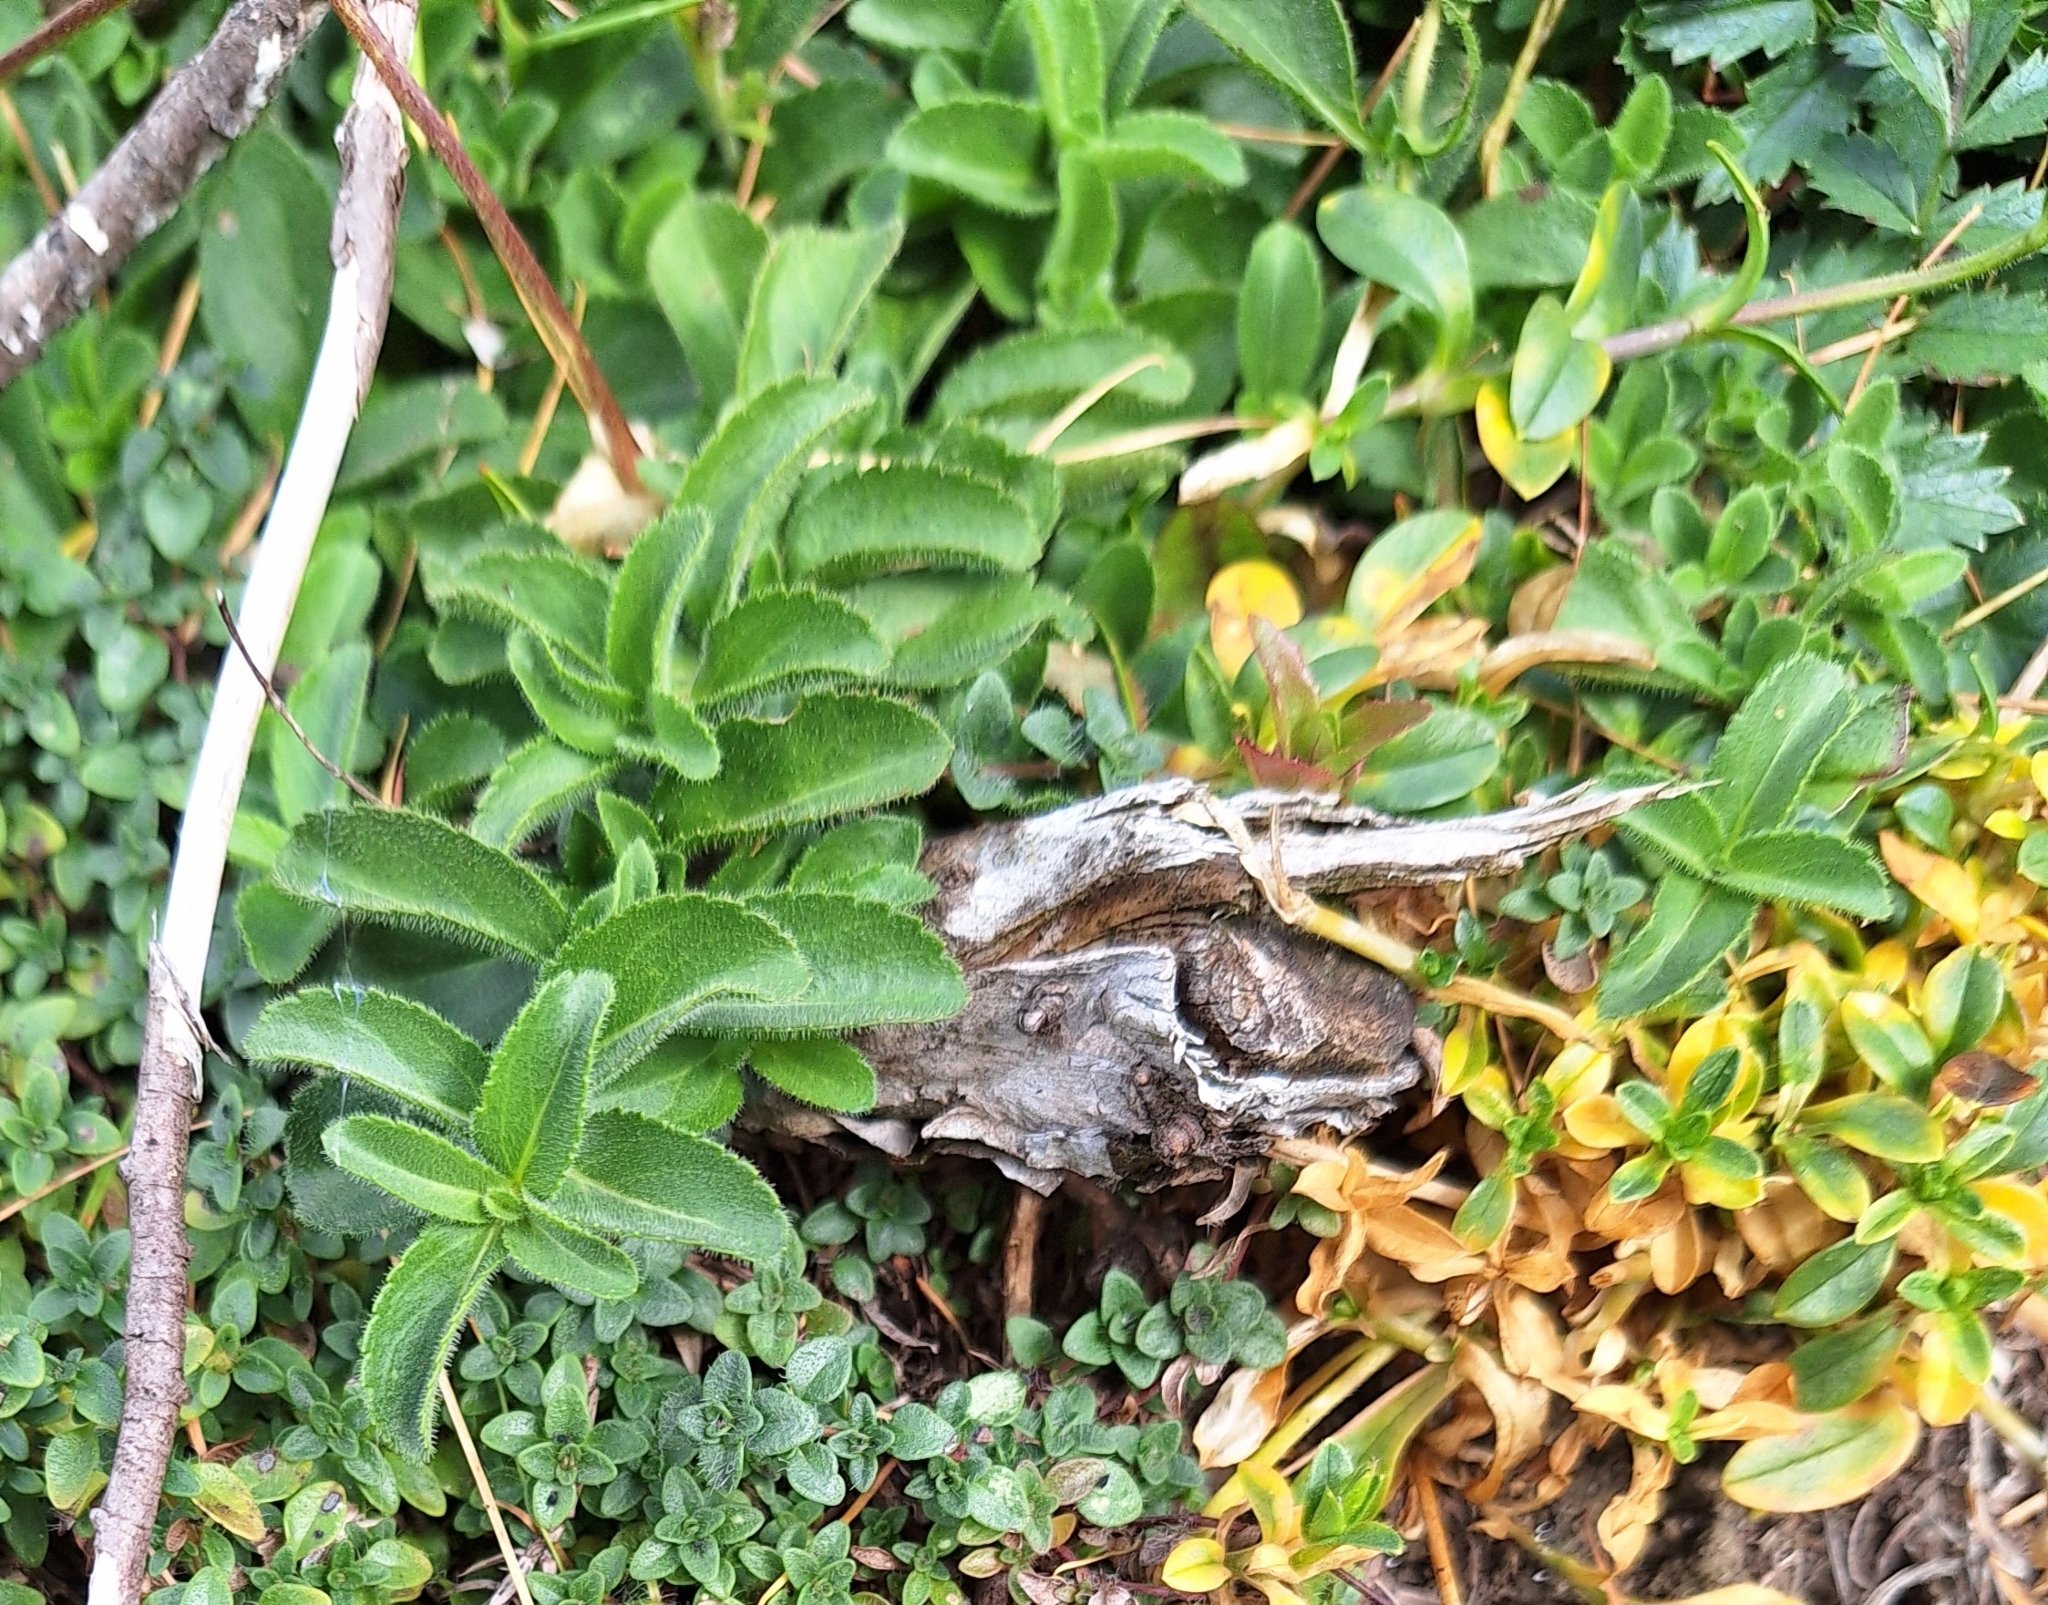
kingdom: Plantae
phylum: Tracheophyta
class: Magnoliopsida
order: Lamiales
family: Plantaginaceae
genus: Veronica
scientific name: Veronica aphylla
